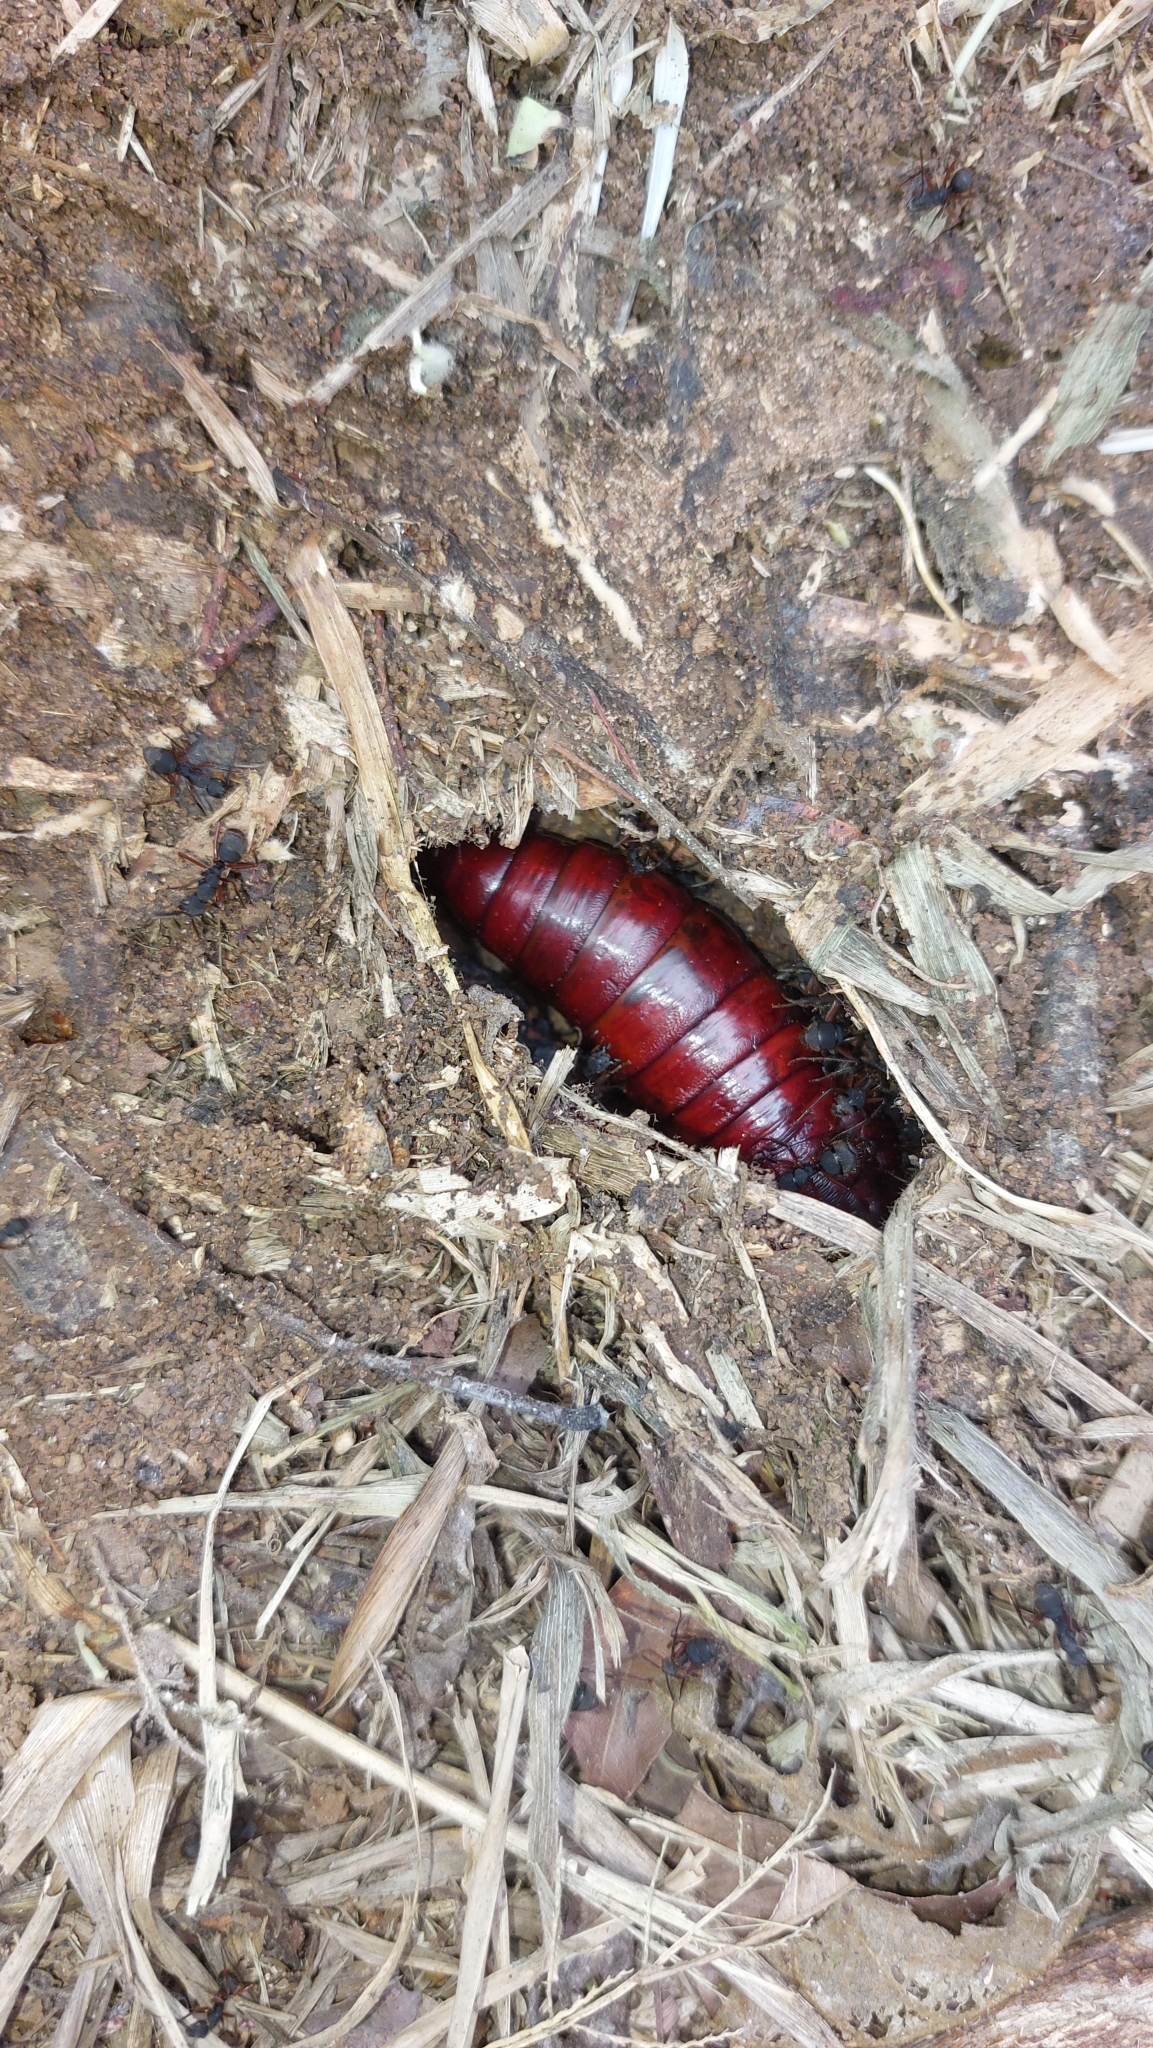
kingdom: Animalia
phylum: Arthropoda
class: Insecta
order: Hymenoptera
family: Formicidae
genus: Camponotus
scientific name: Camponotus rufipes
